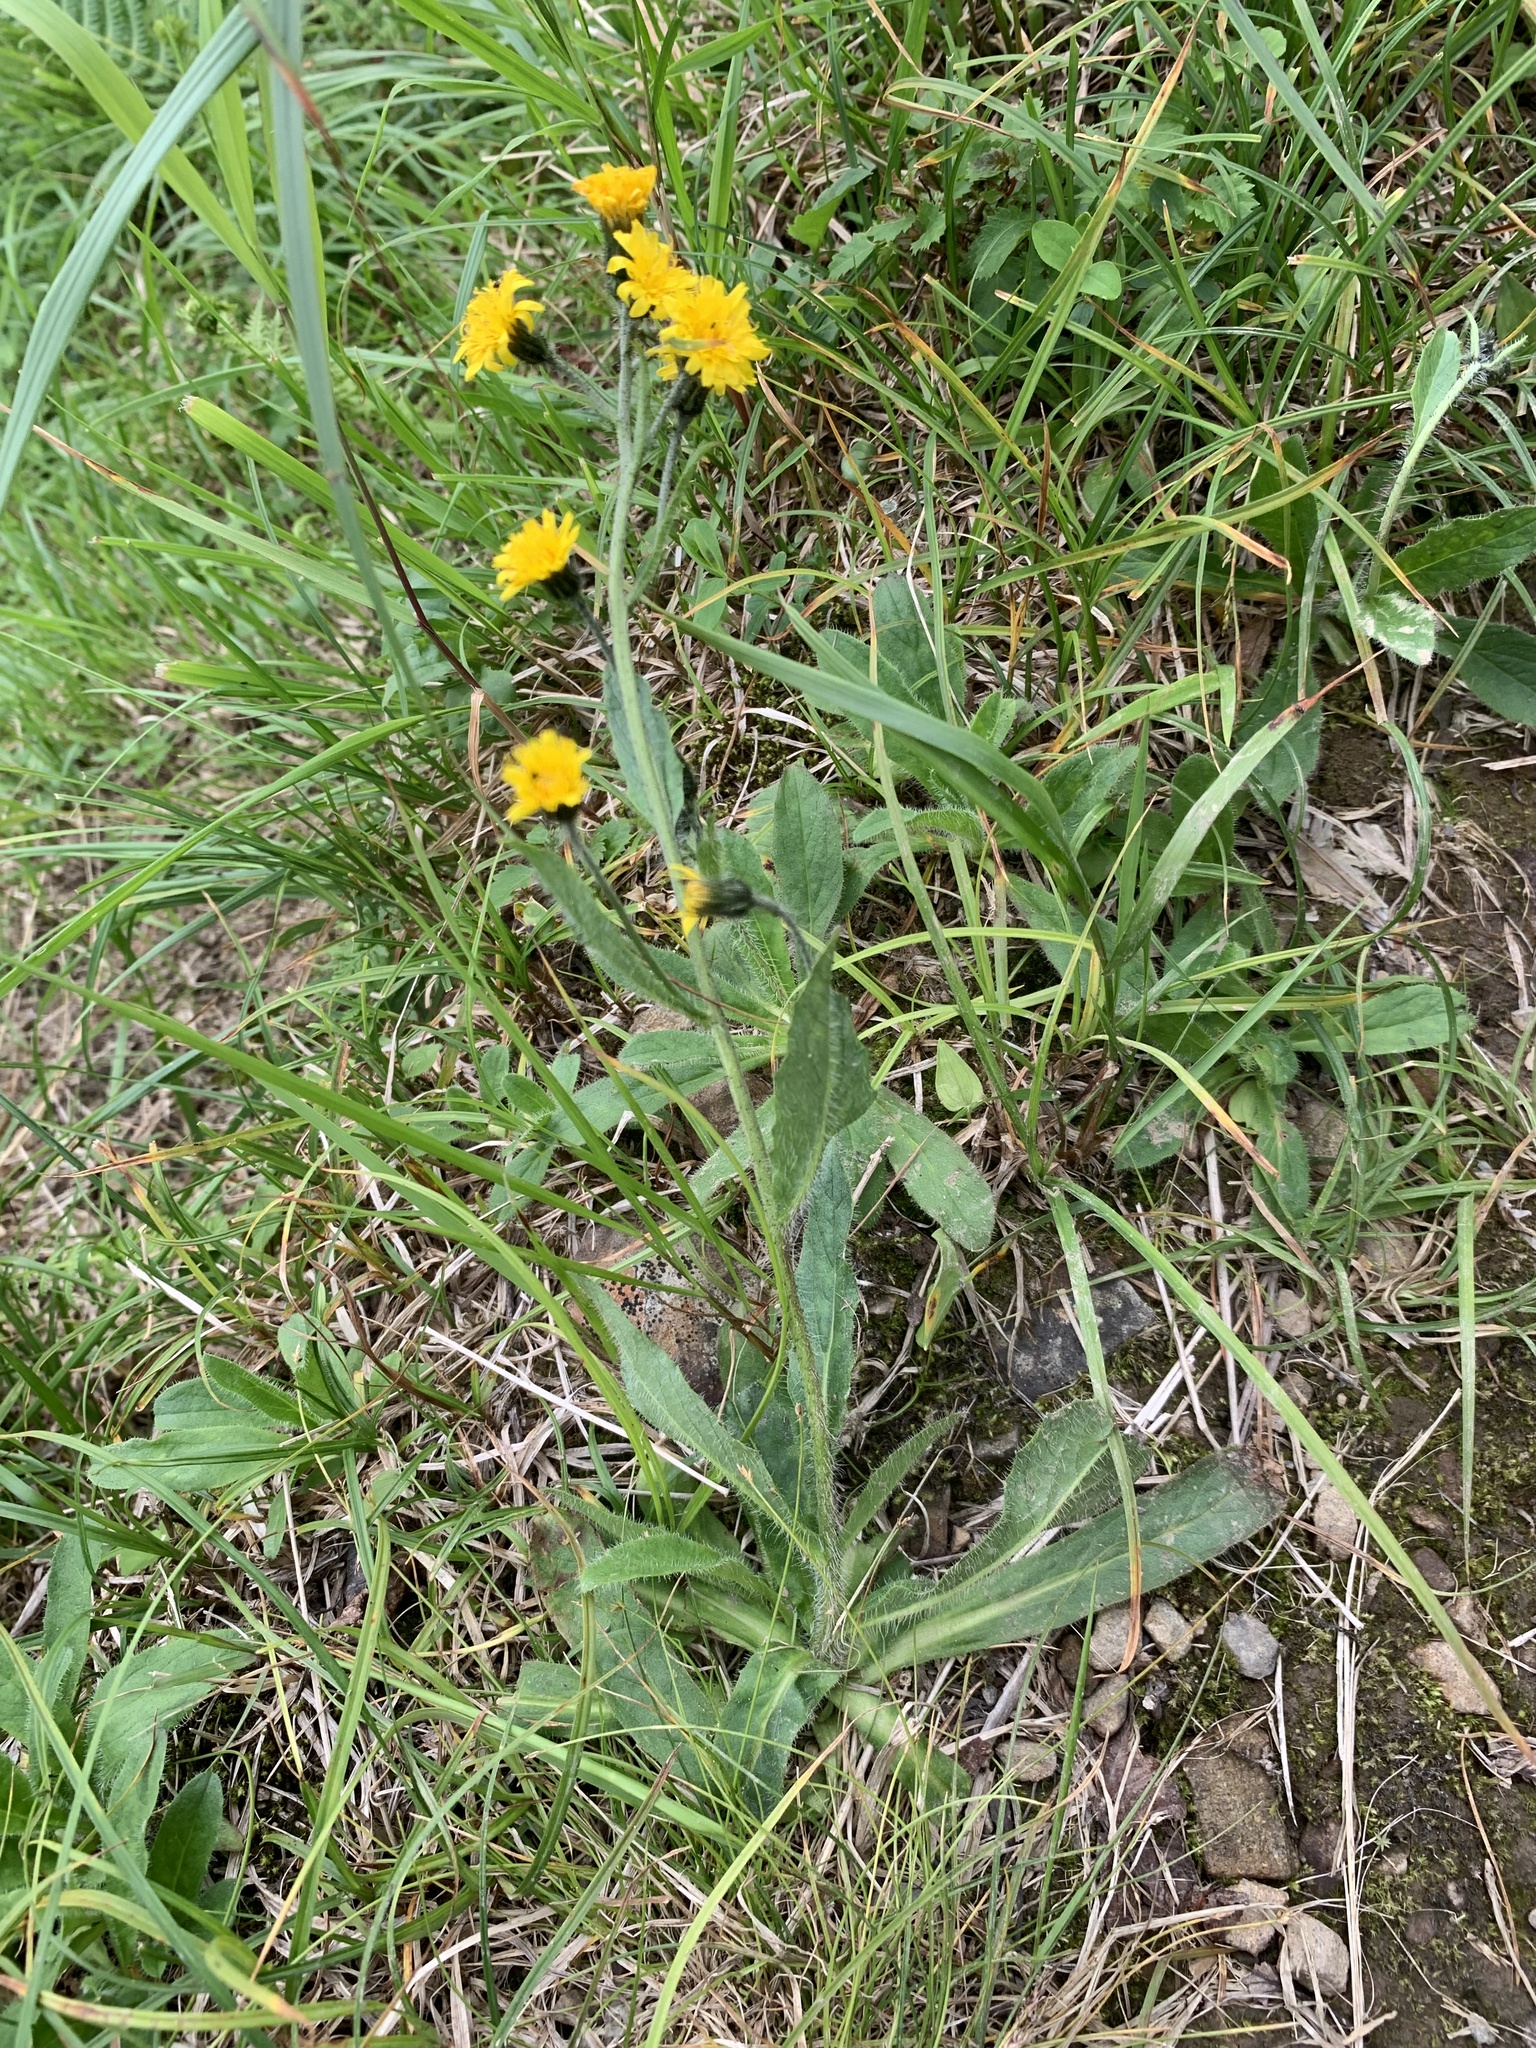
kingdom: Plantae
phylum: Tracheophyta
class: Magnoliopsida
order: Asterales
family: Asteraceae
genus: Hieracium
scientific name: Hieracium japonicum
